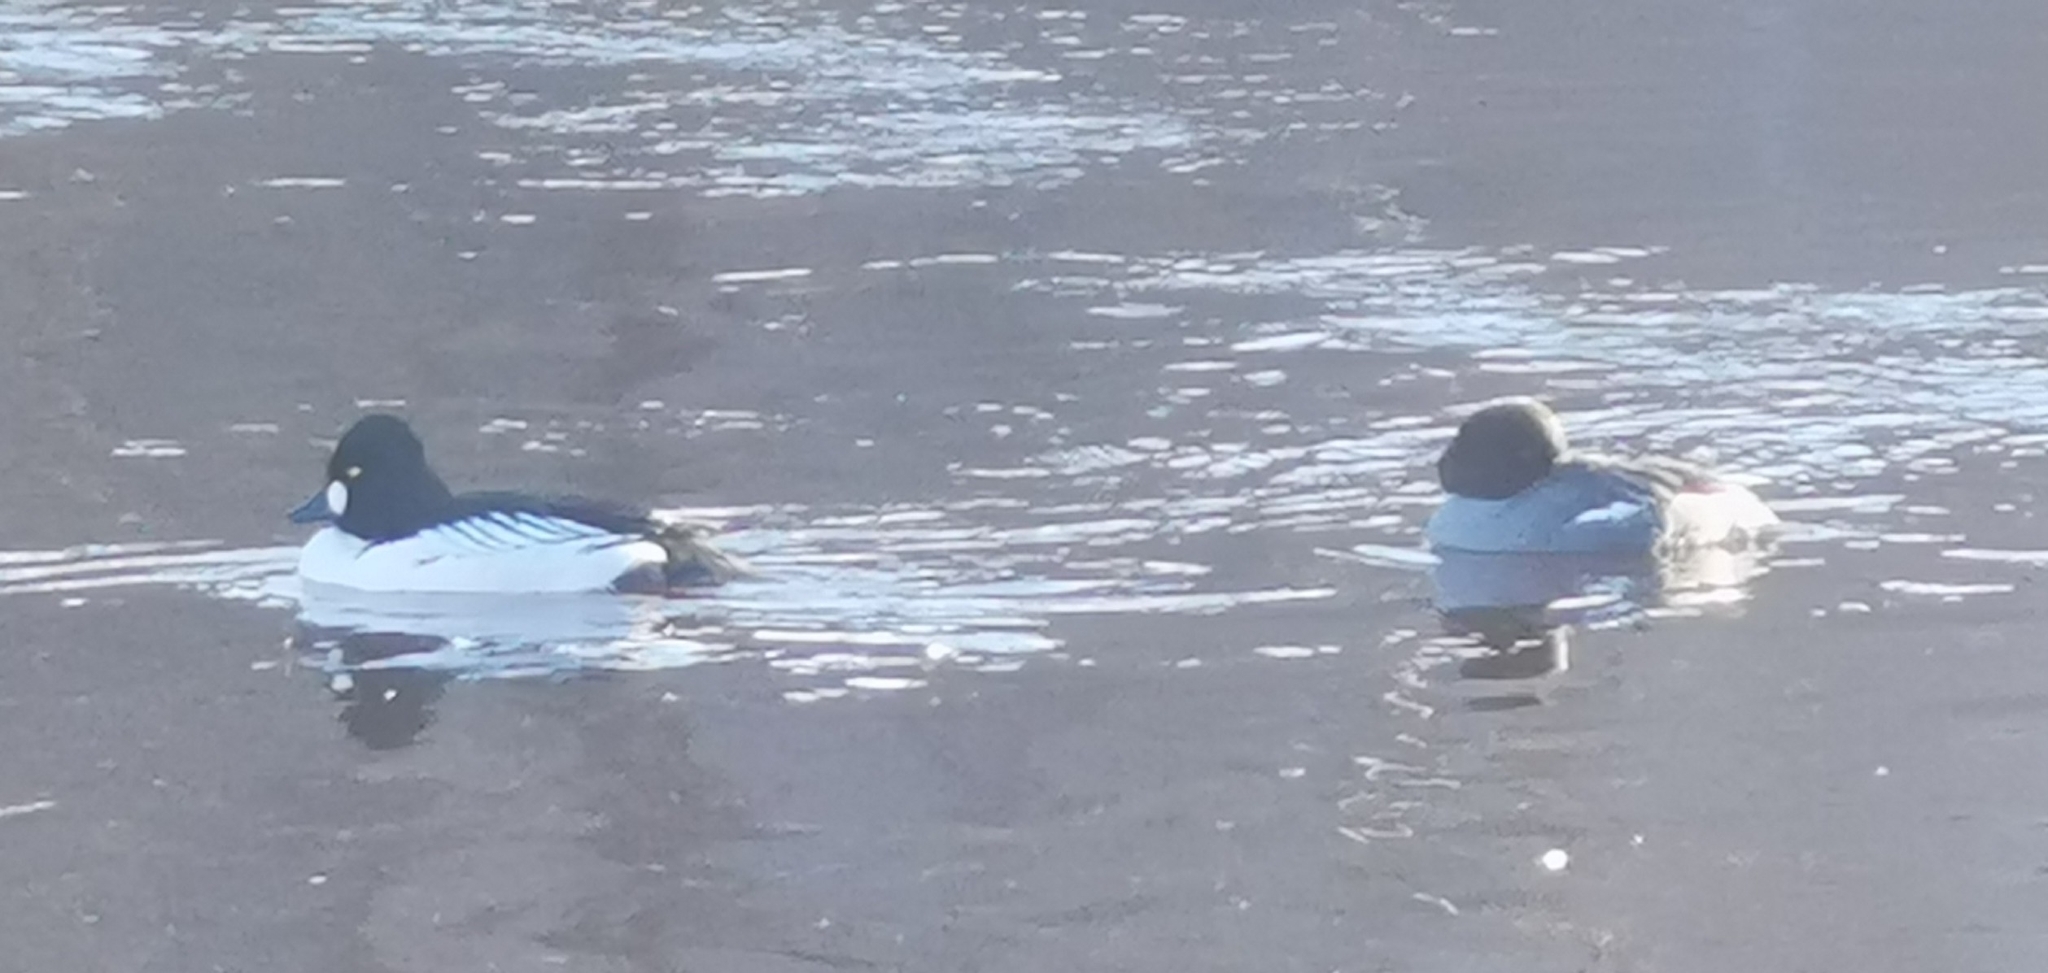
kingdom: Animalia
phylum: Chordata
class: Aves
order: Anseriformes
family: Anatidae
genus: Bucephala
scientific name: Bucephala clangula
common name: Common goldeneye
